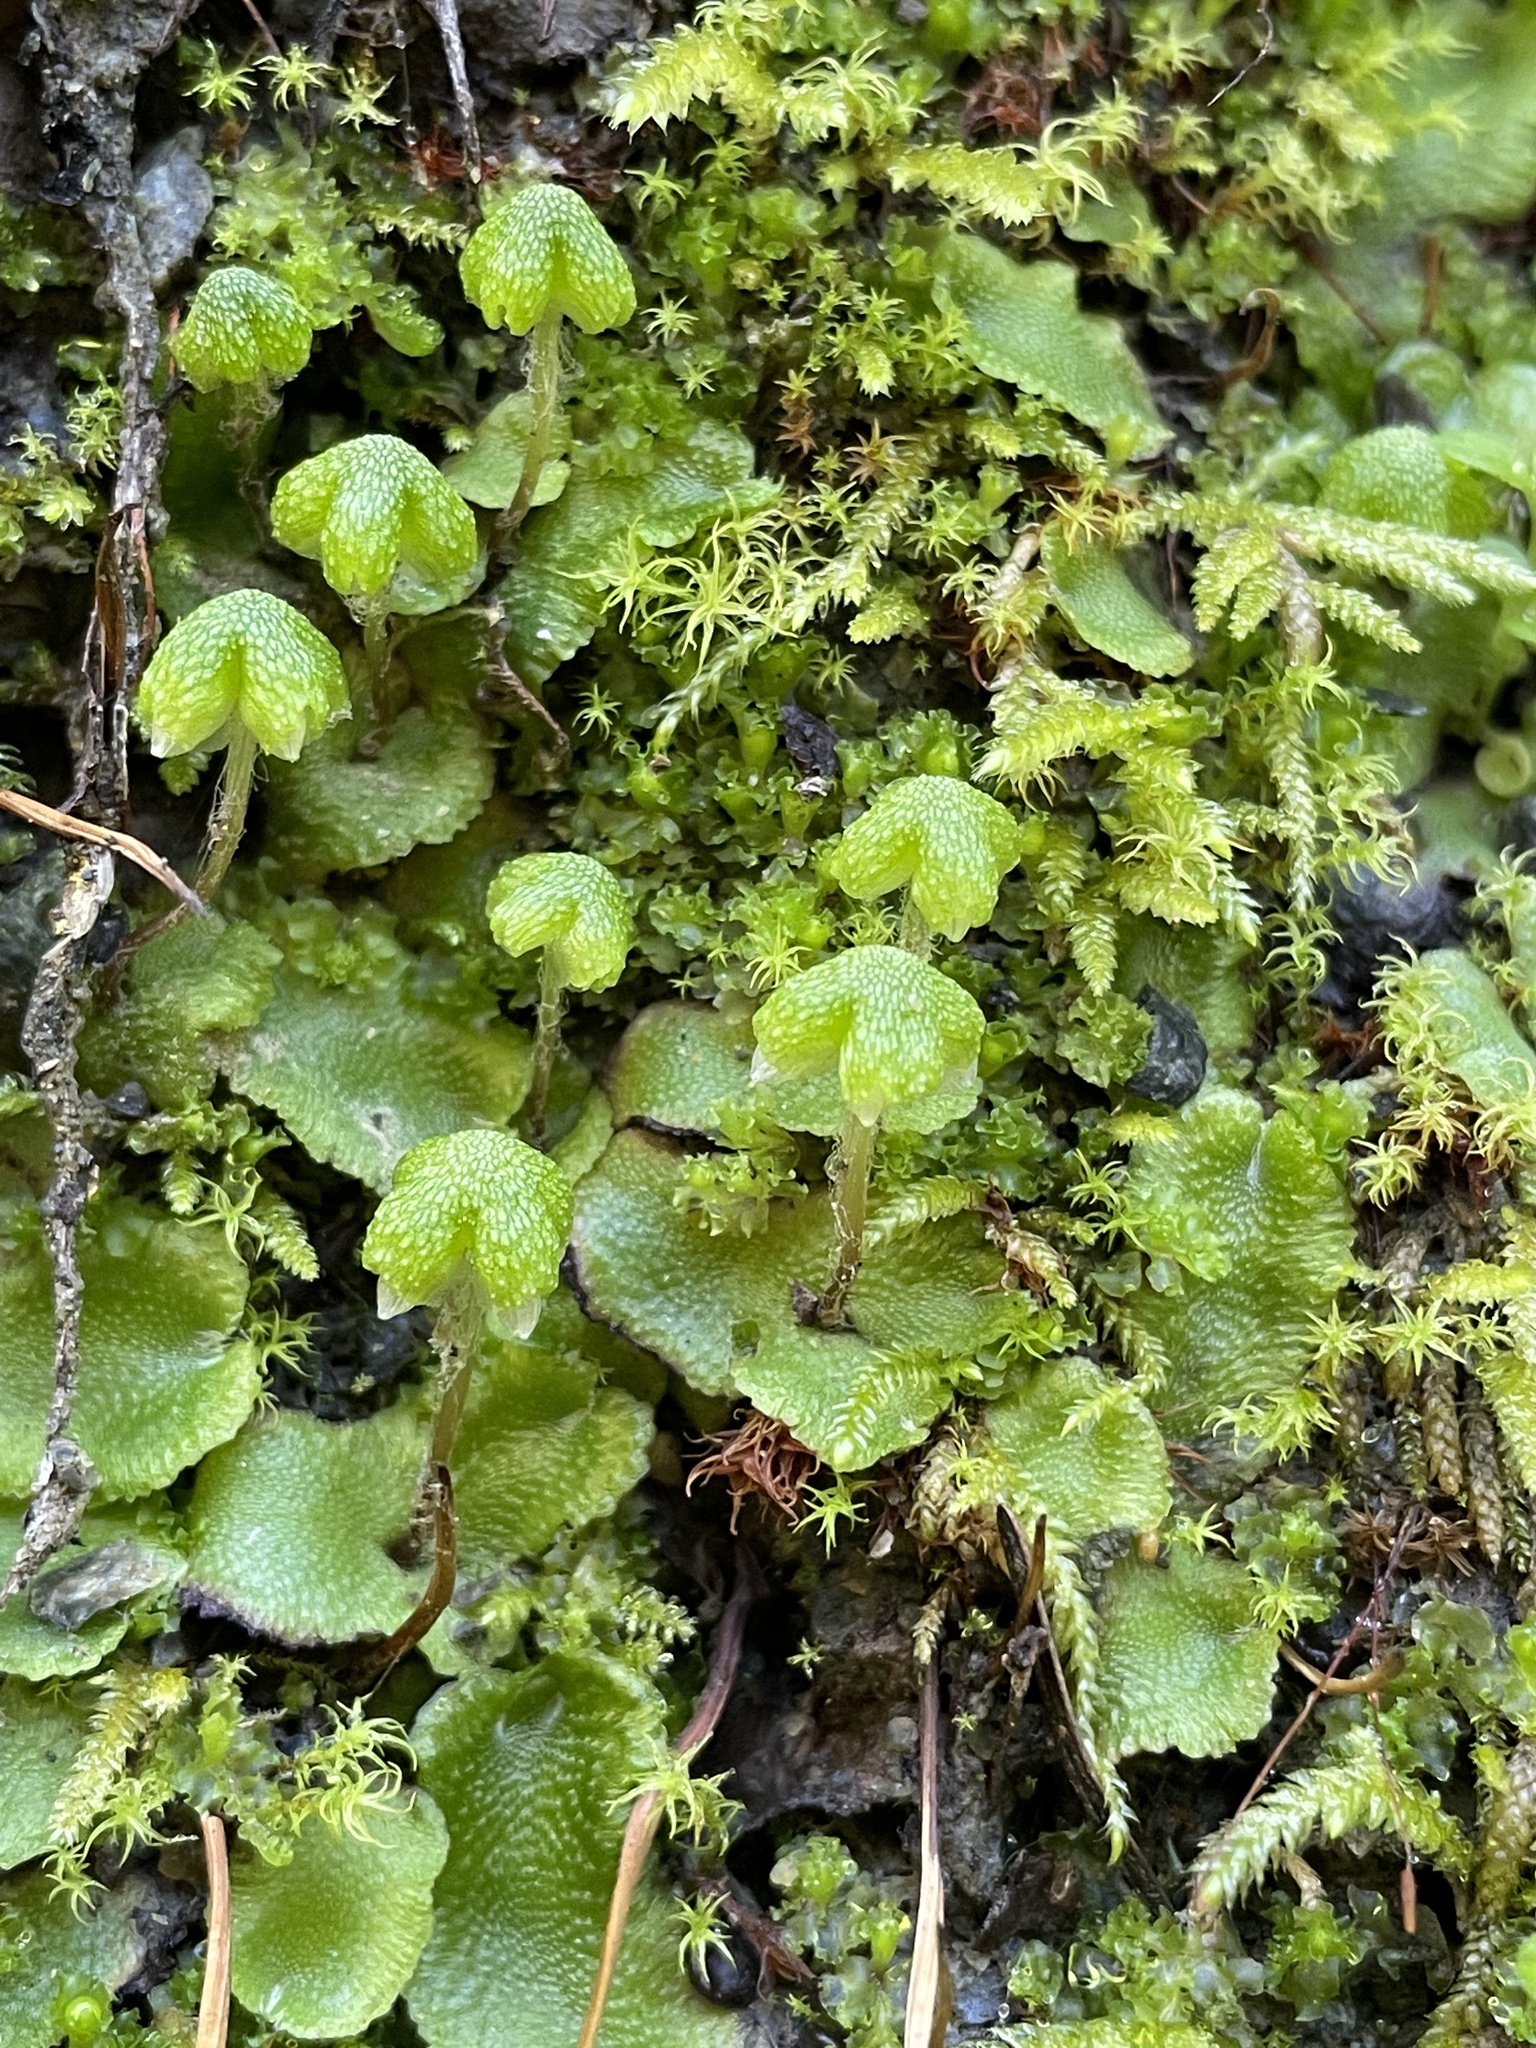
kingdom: Plantae
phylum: Marchantiophyta
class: Marchantiopsida
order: Marchantiales
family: Aytoniaceae
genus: Asterella
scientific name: Asterella californica
